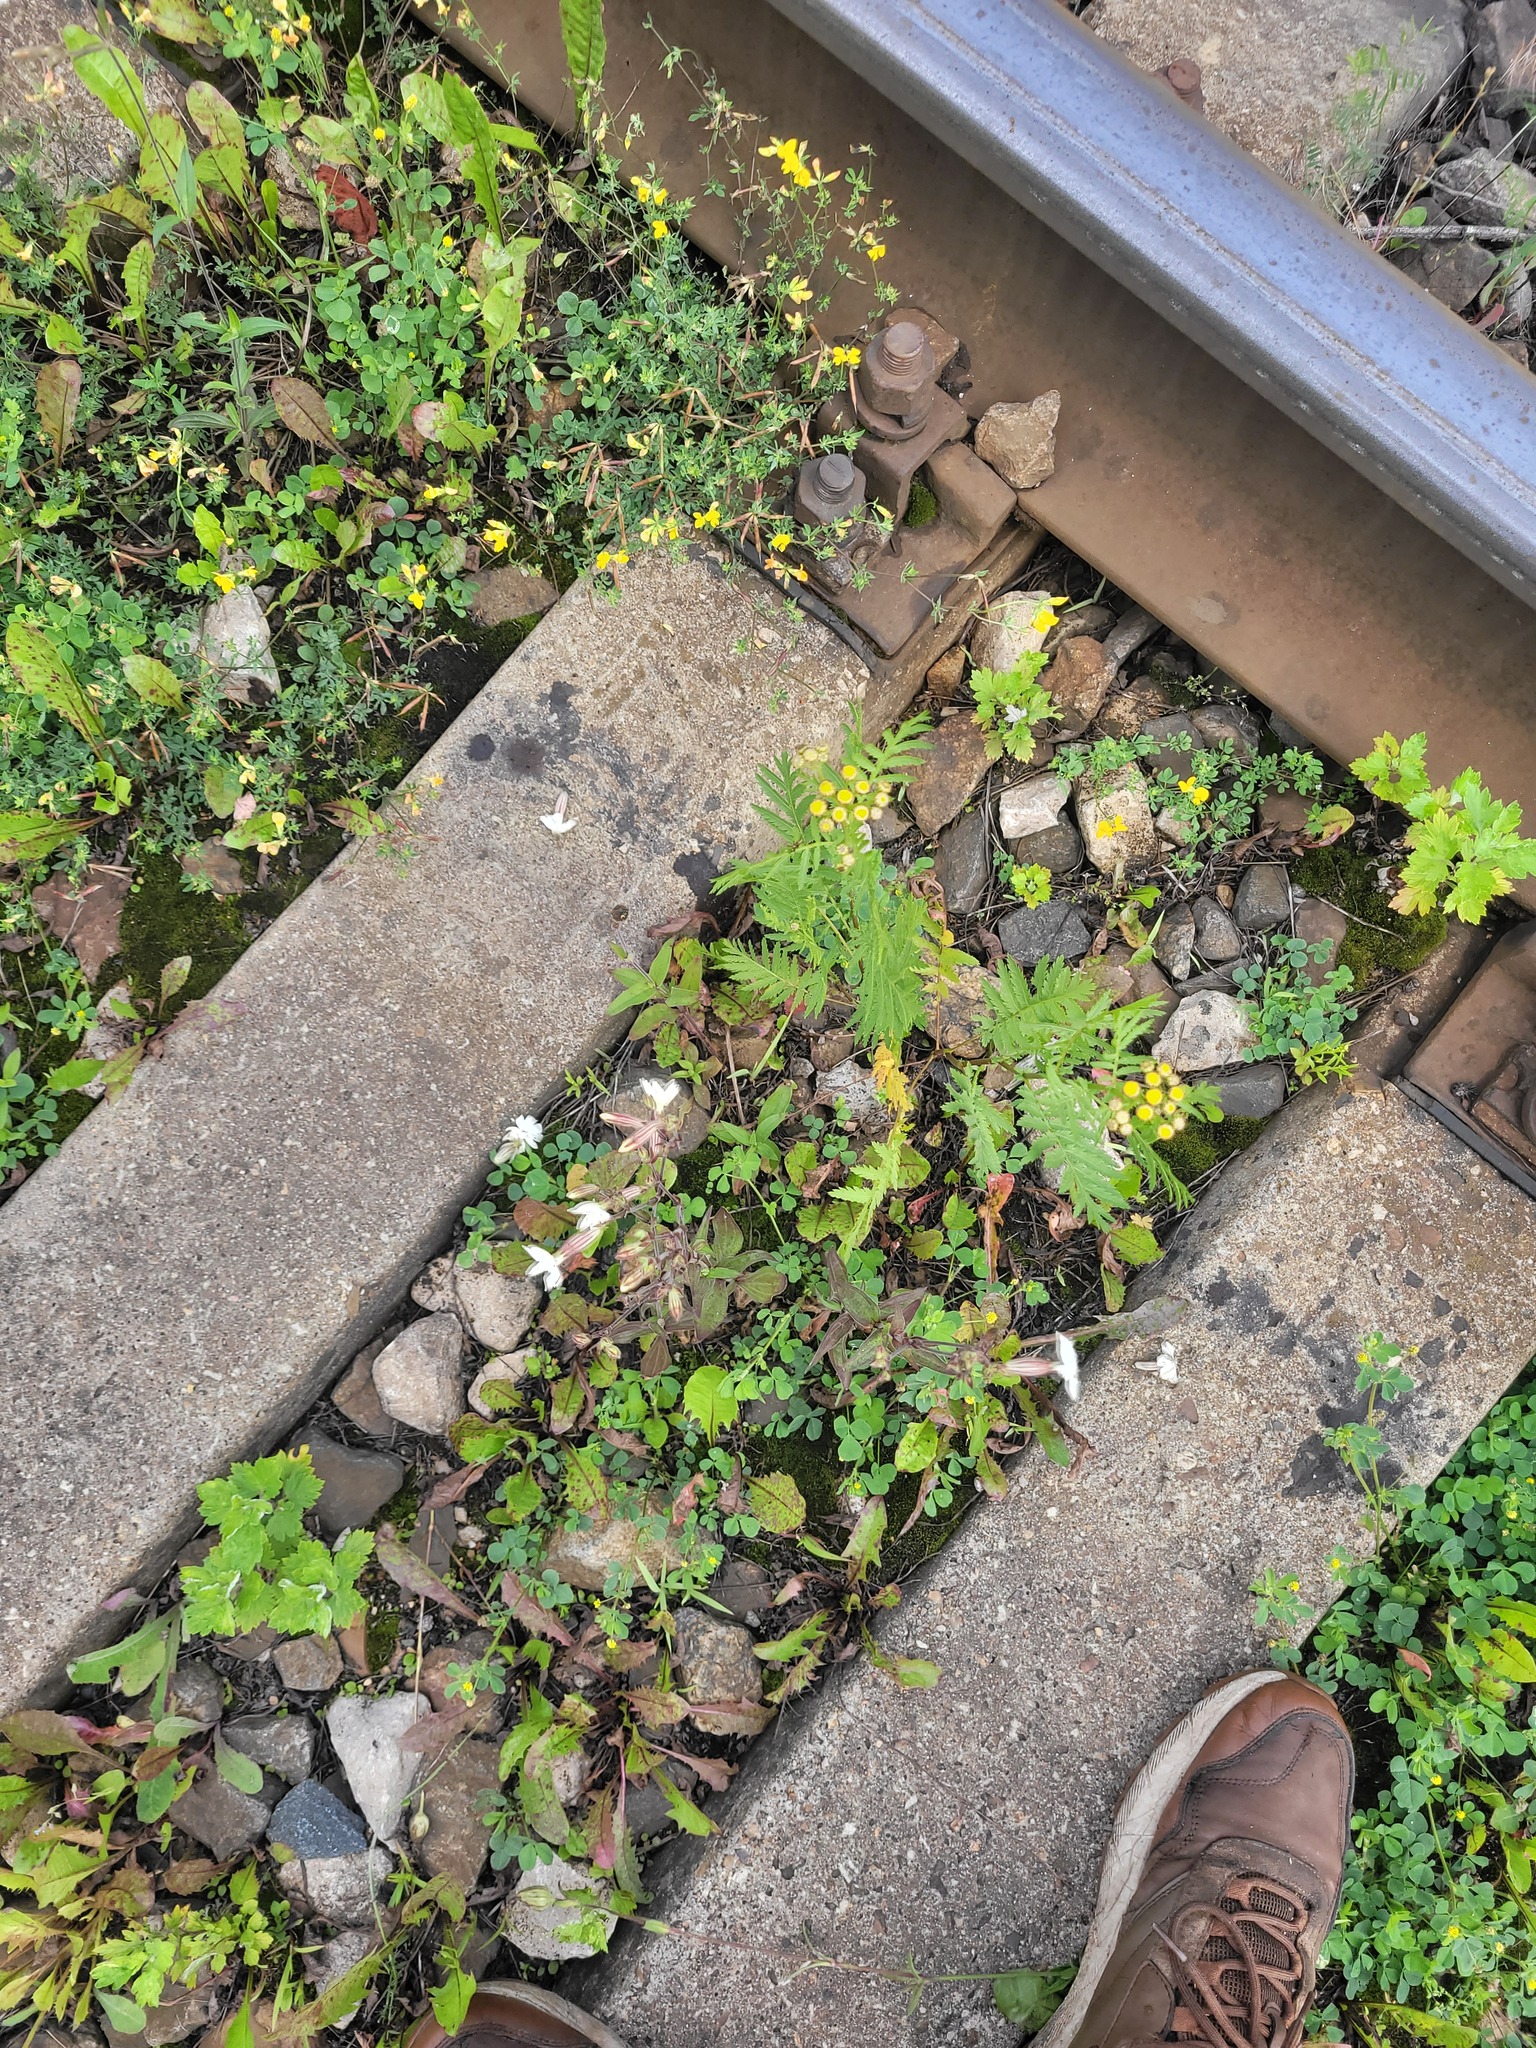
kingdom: Plantae
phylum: Tracheophyta
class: Magnoliopsida
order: Caryophyllales
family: Caryophyllaceae
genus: Silene
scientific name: Silene latifolia
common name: White campion
